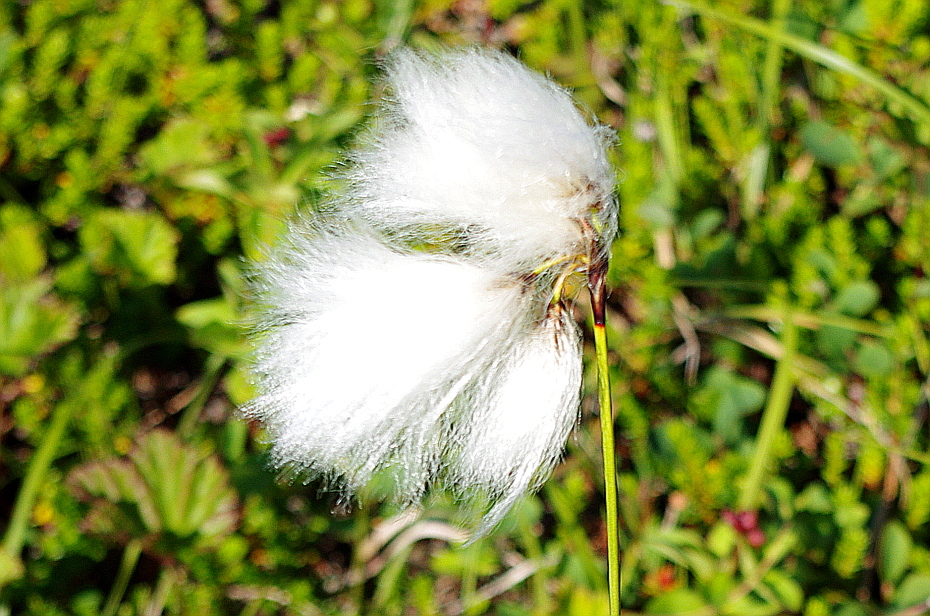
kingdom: Plantae
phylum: Tracheophyta
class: Liliopsida
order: Poales
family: Cyperaceae
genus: Eriophorum
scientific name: Eriophorum angustifolium
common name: Common cottongrass
